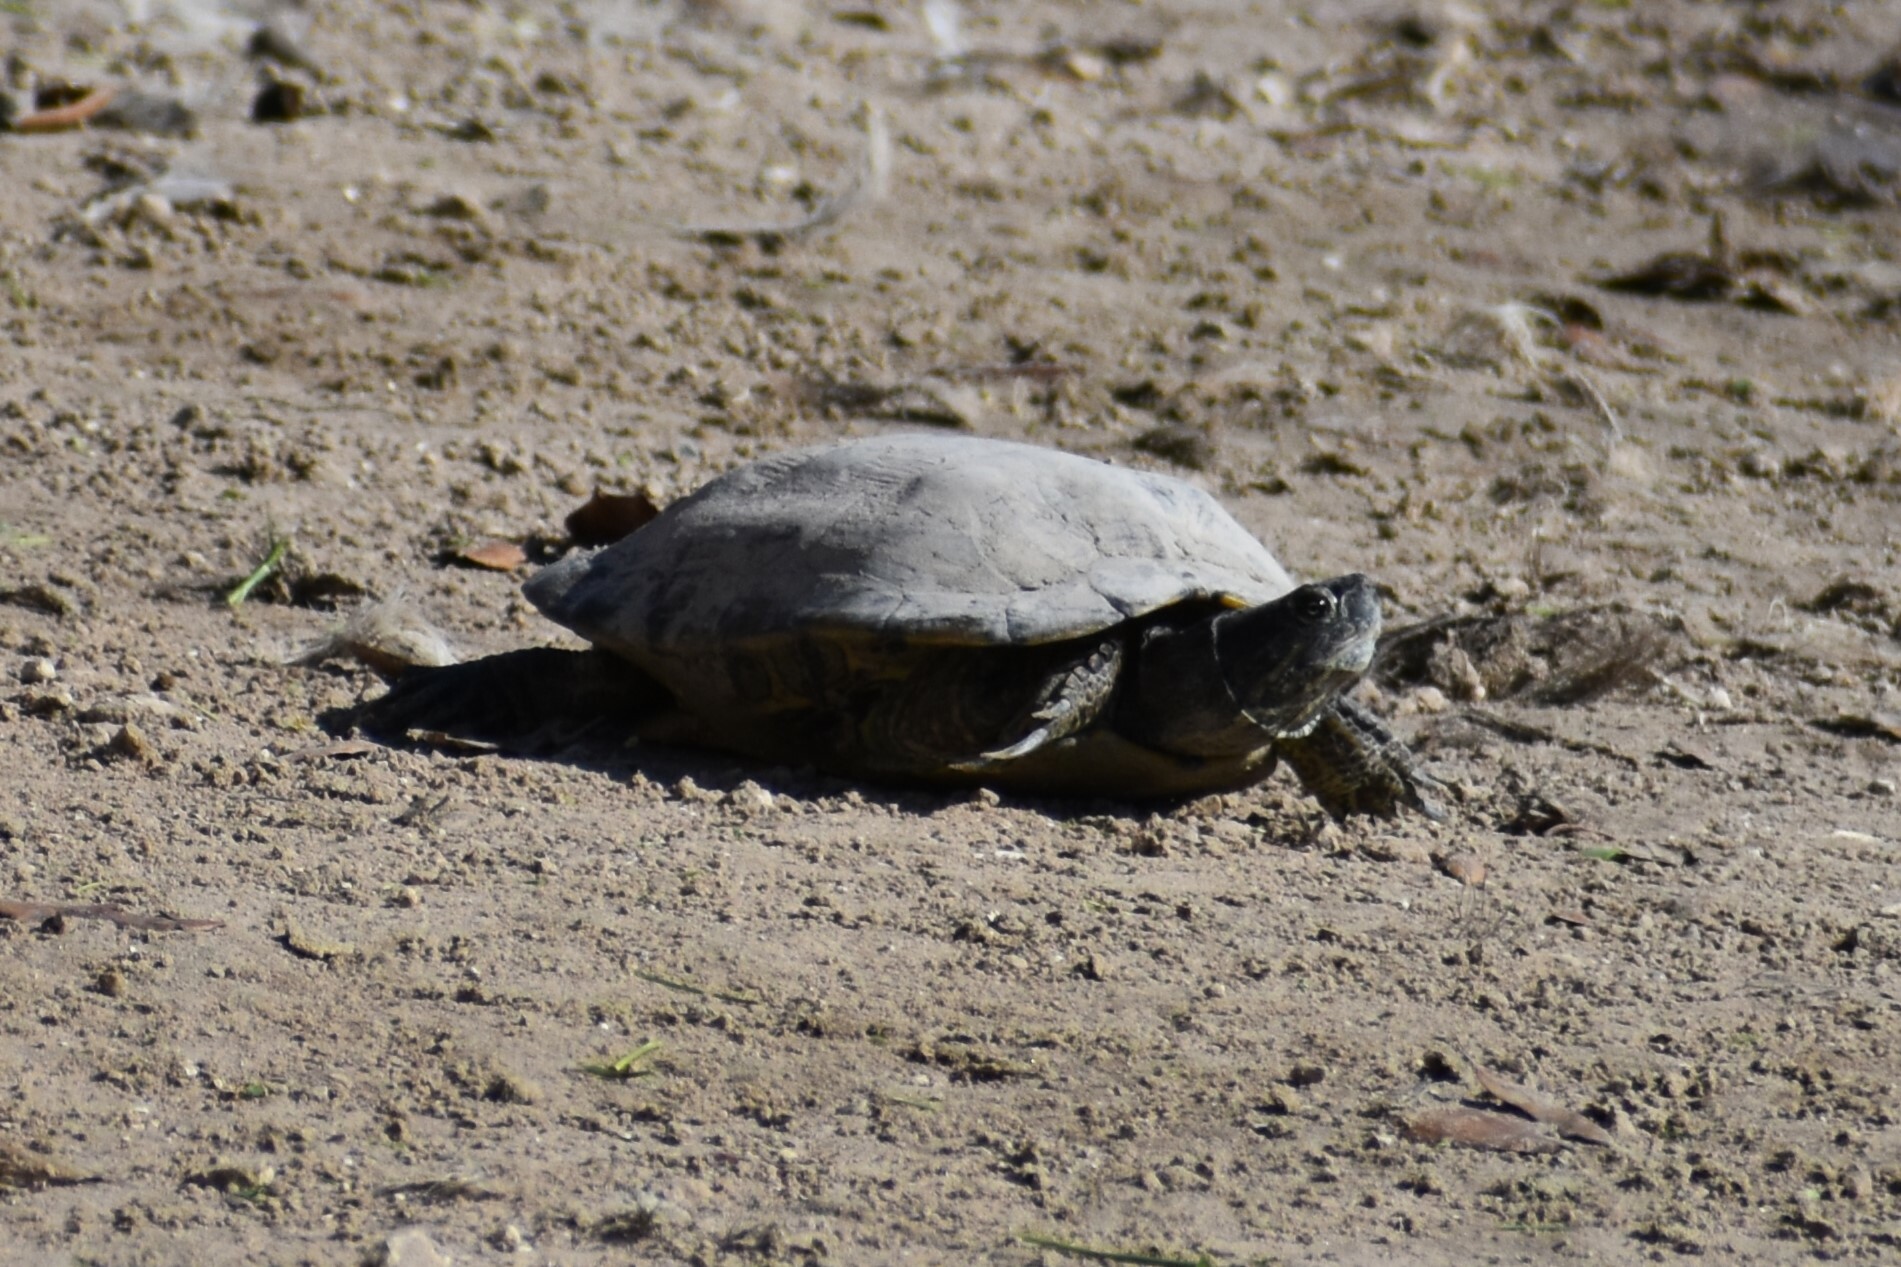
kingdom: Animalia
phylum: Chordata
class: Testudines
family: Emydidae
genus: Trachemys
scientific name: Trachemys scripta
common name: Slider
